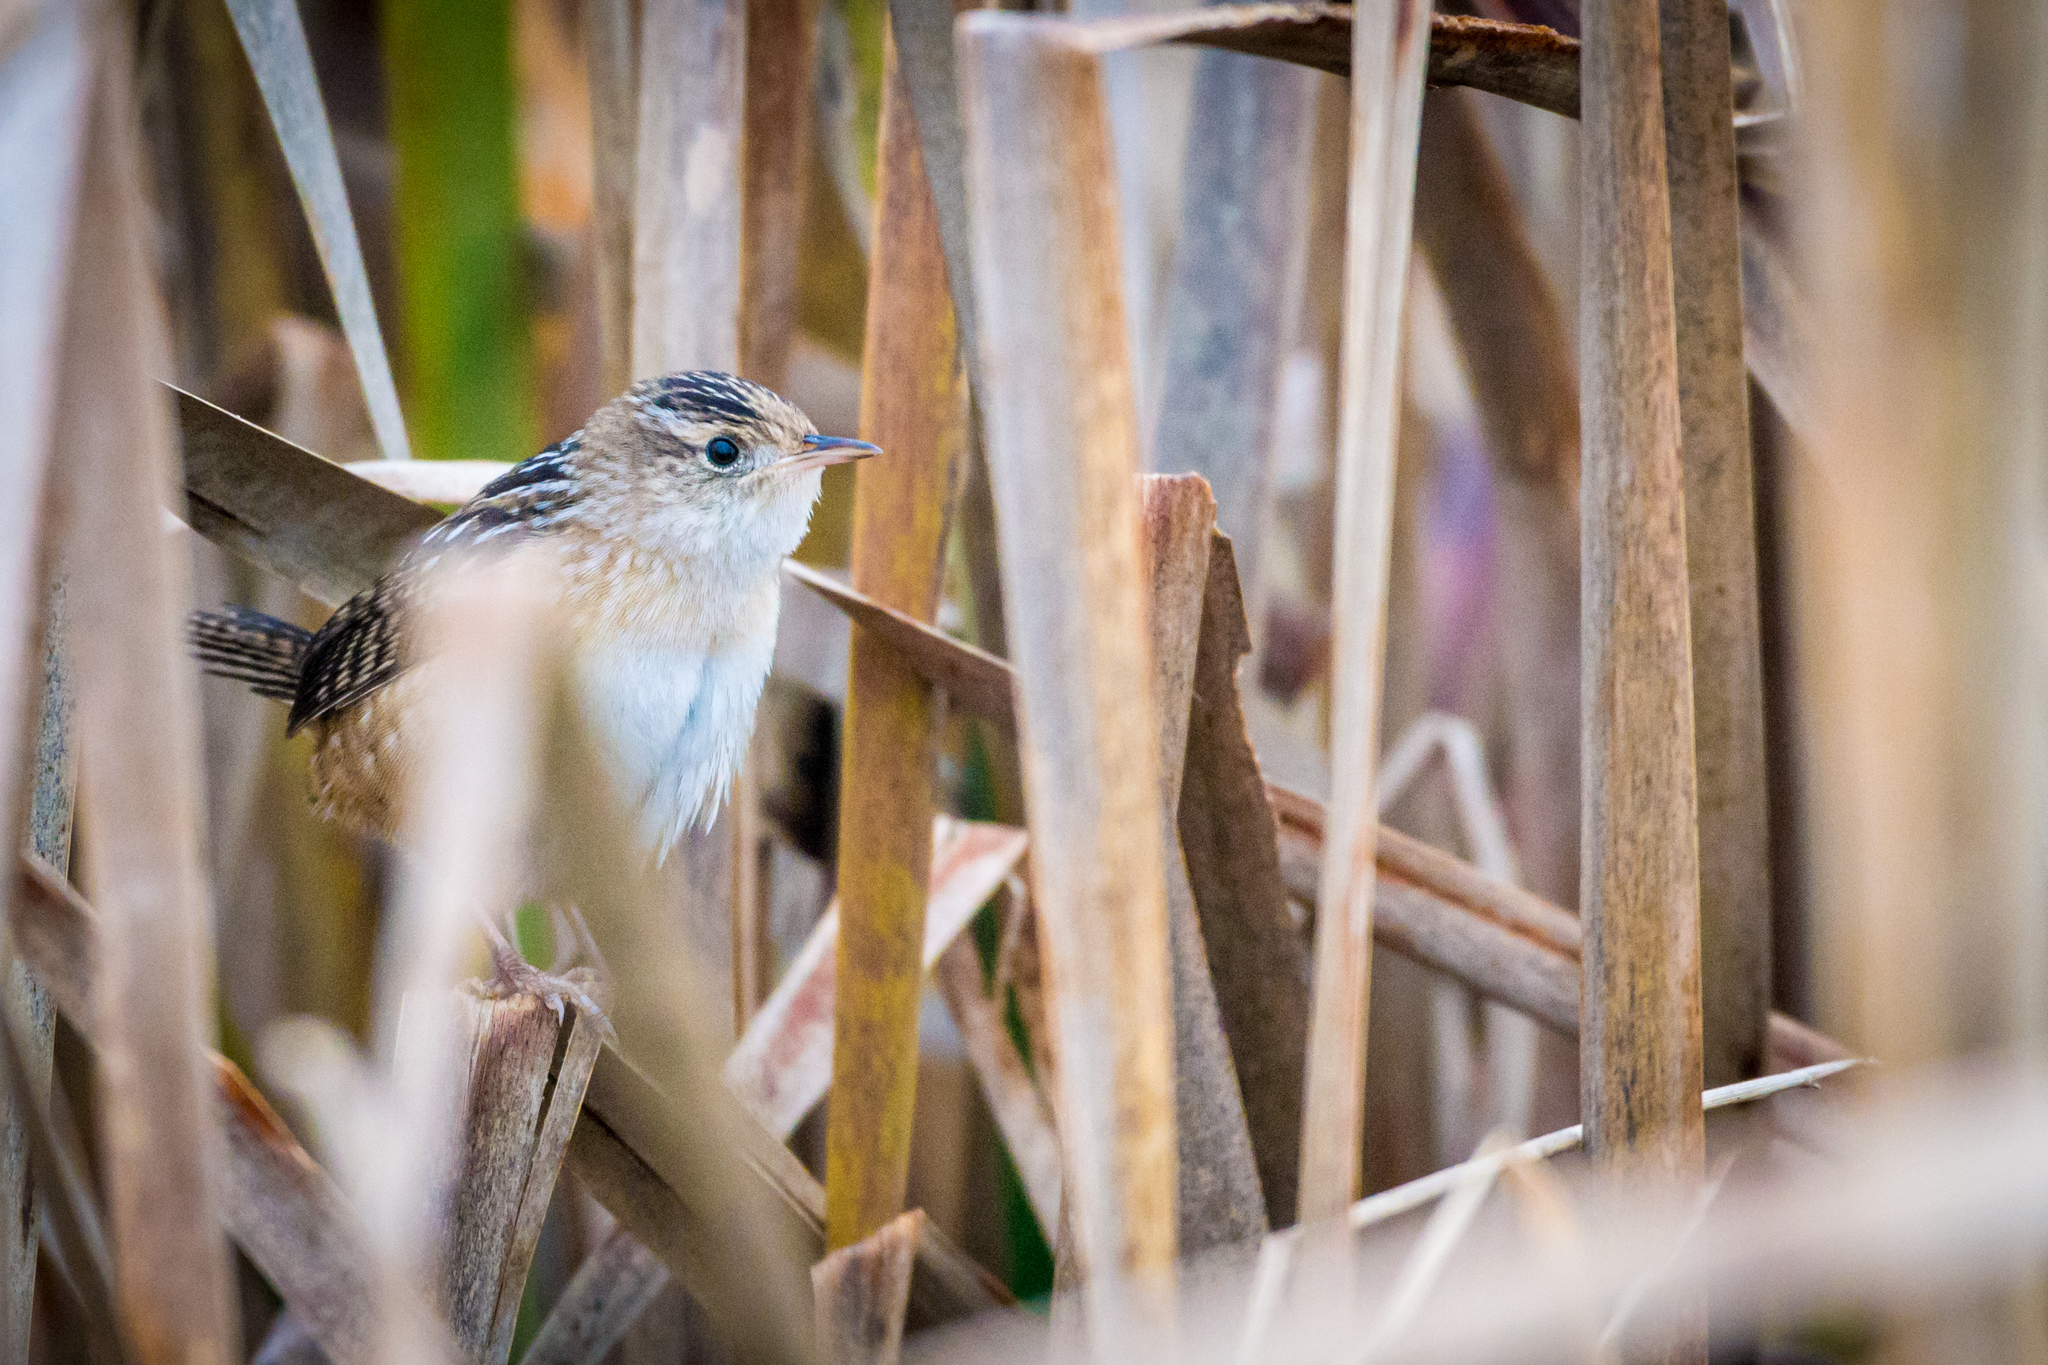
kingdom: Animalia
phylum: Chordata
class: Aves
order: Passeriformes
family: Troglodytidae
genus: Cistothorus
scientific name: Cistothorus platensis
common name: Sedge wren
